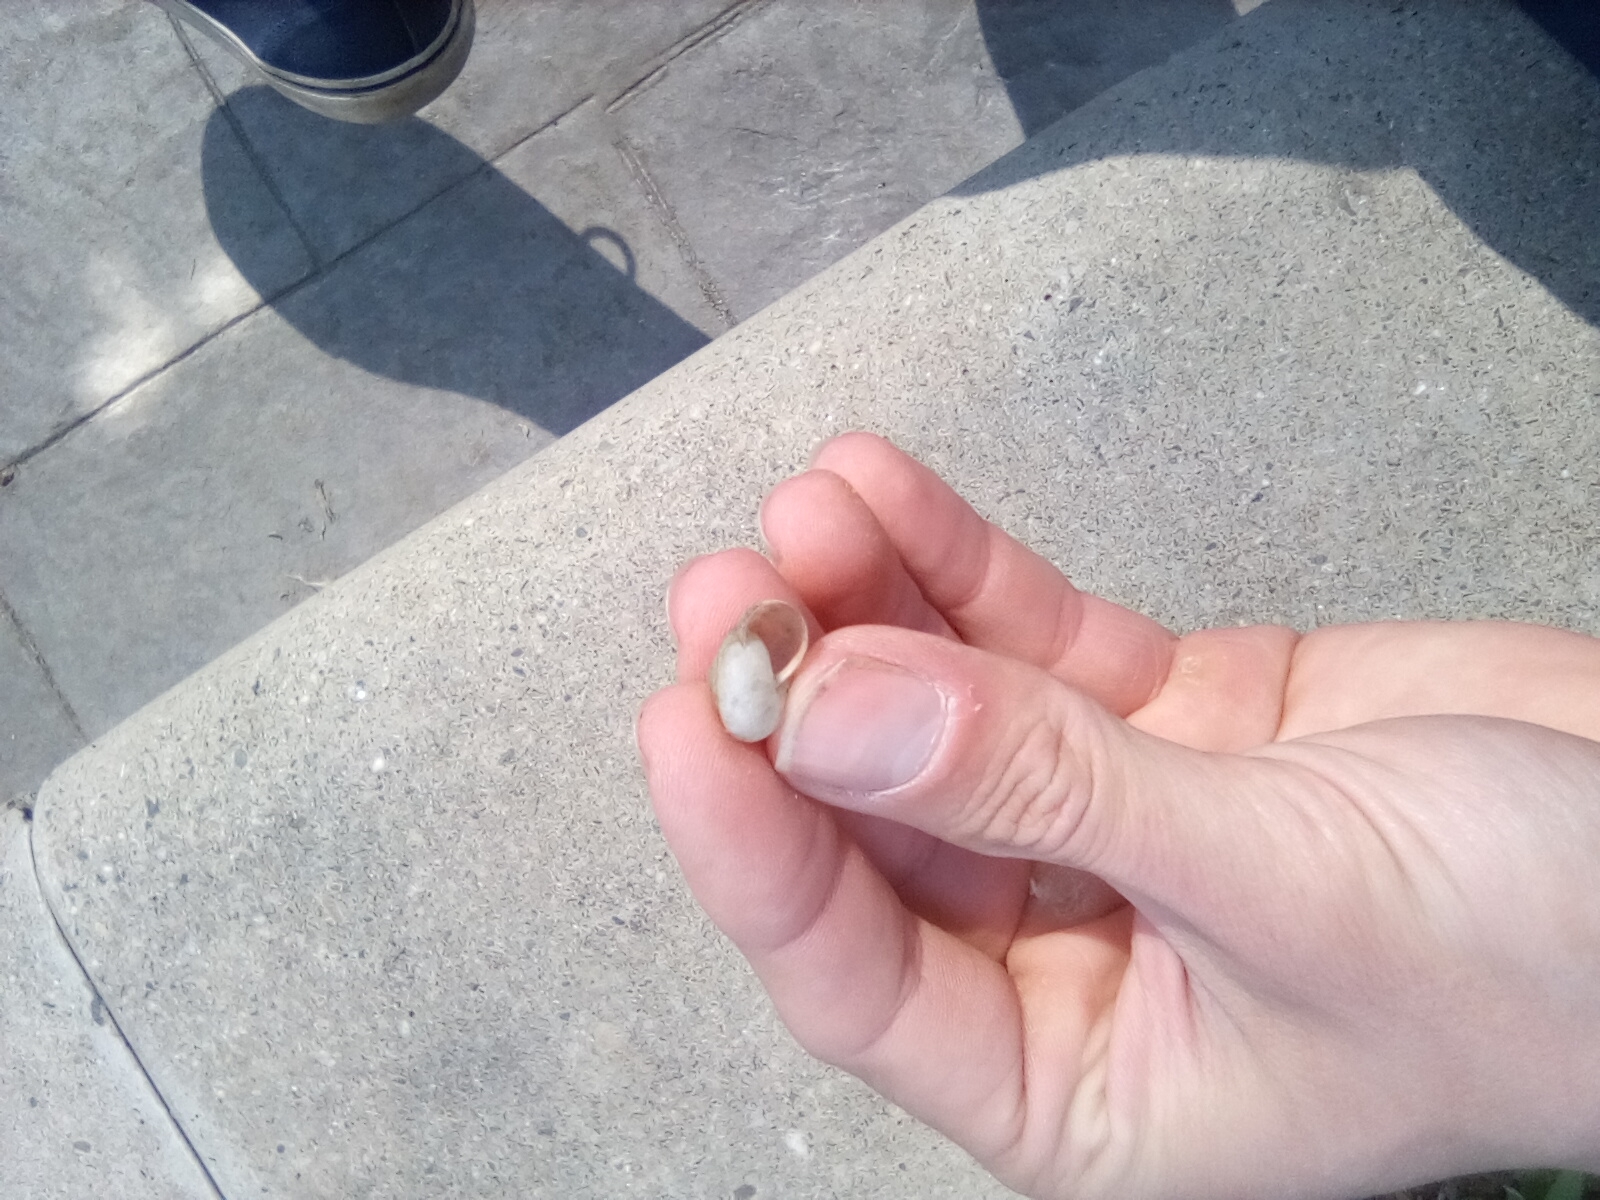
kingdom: Animalia
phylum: Mollusca
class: Gastropoda
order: Stylommatophora
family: Hygromiidae
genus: Monacha
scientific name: Monacha cartusiana
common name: Carthusian snail
